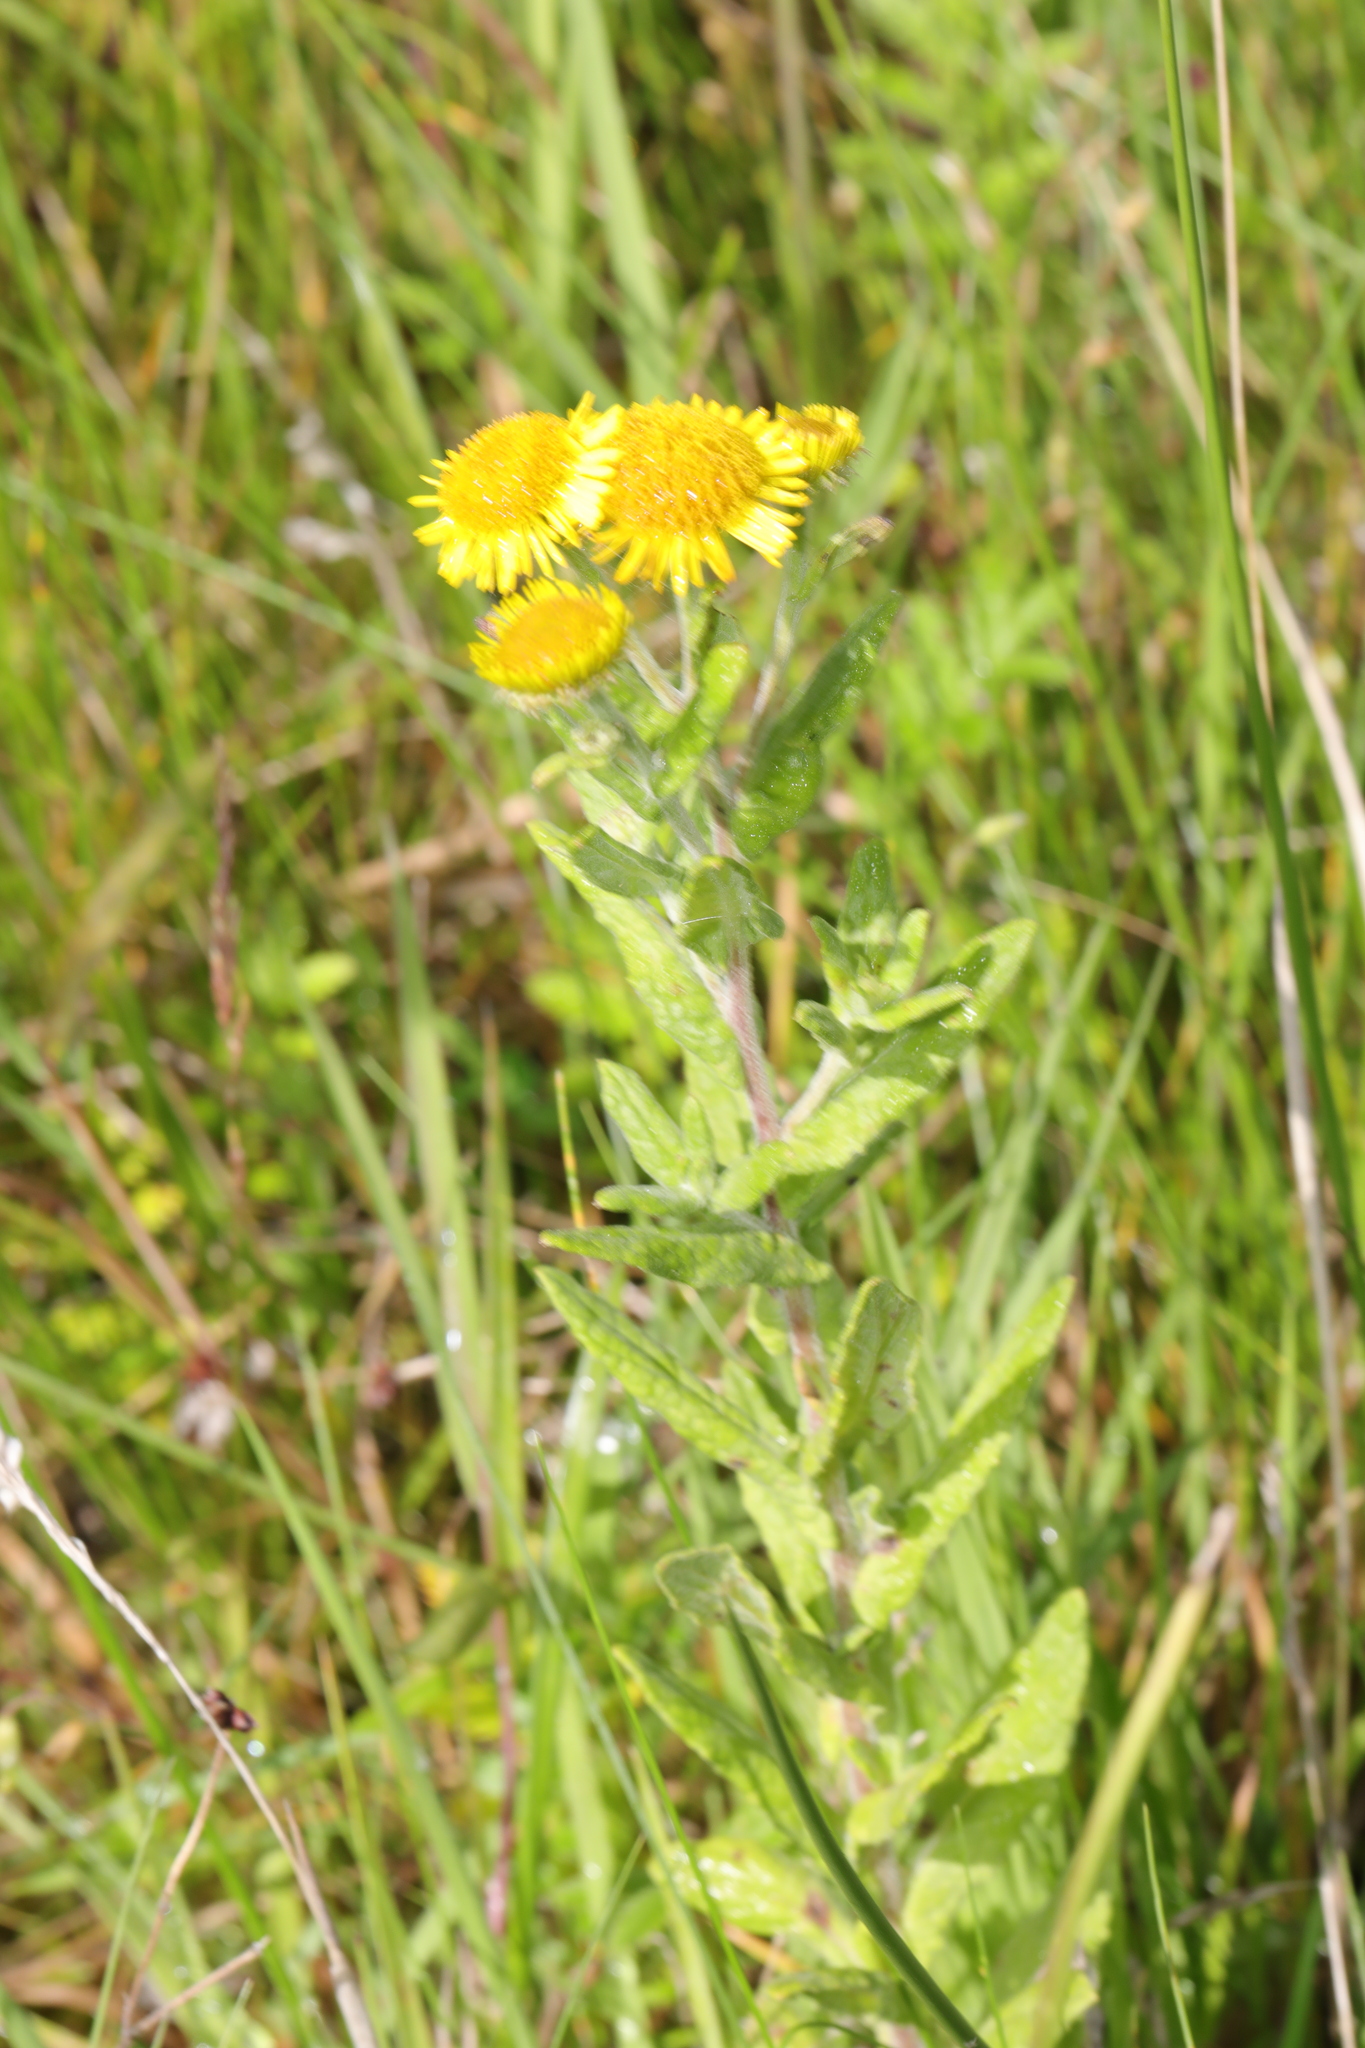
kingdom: Plantae
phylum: Tracheophyta
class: Magnoliopsida
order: Asterales
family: Asteraceae
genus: Pulicaria
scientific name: Pulicaria dysenterica
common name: Common fleabane
